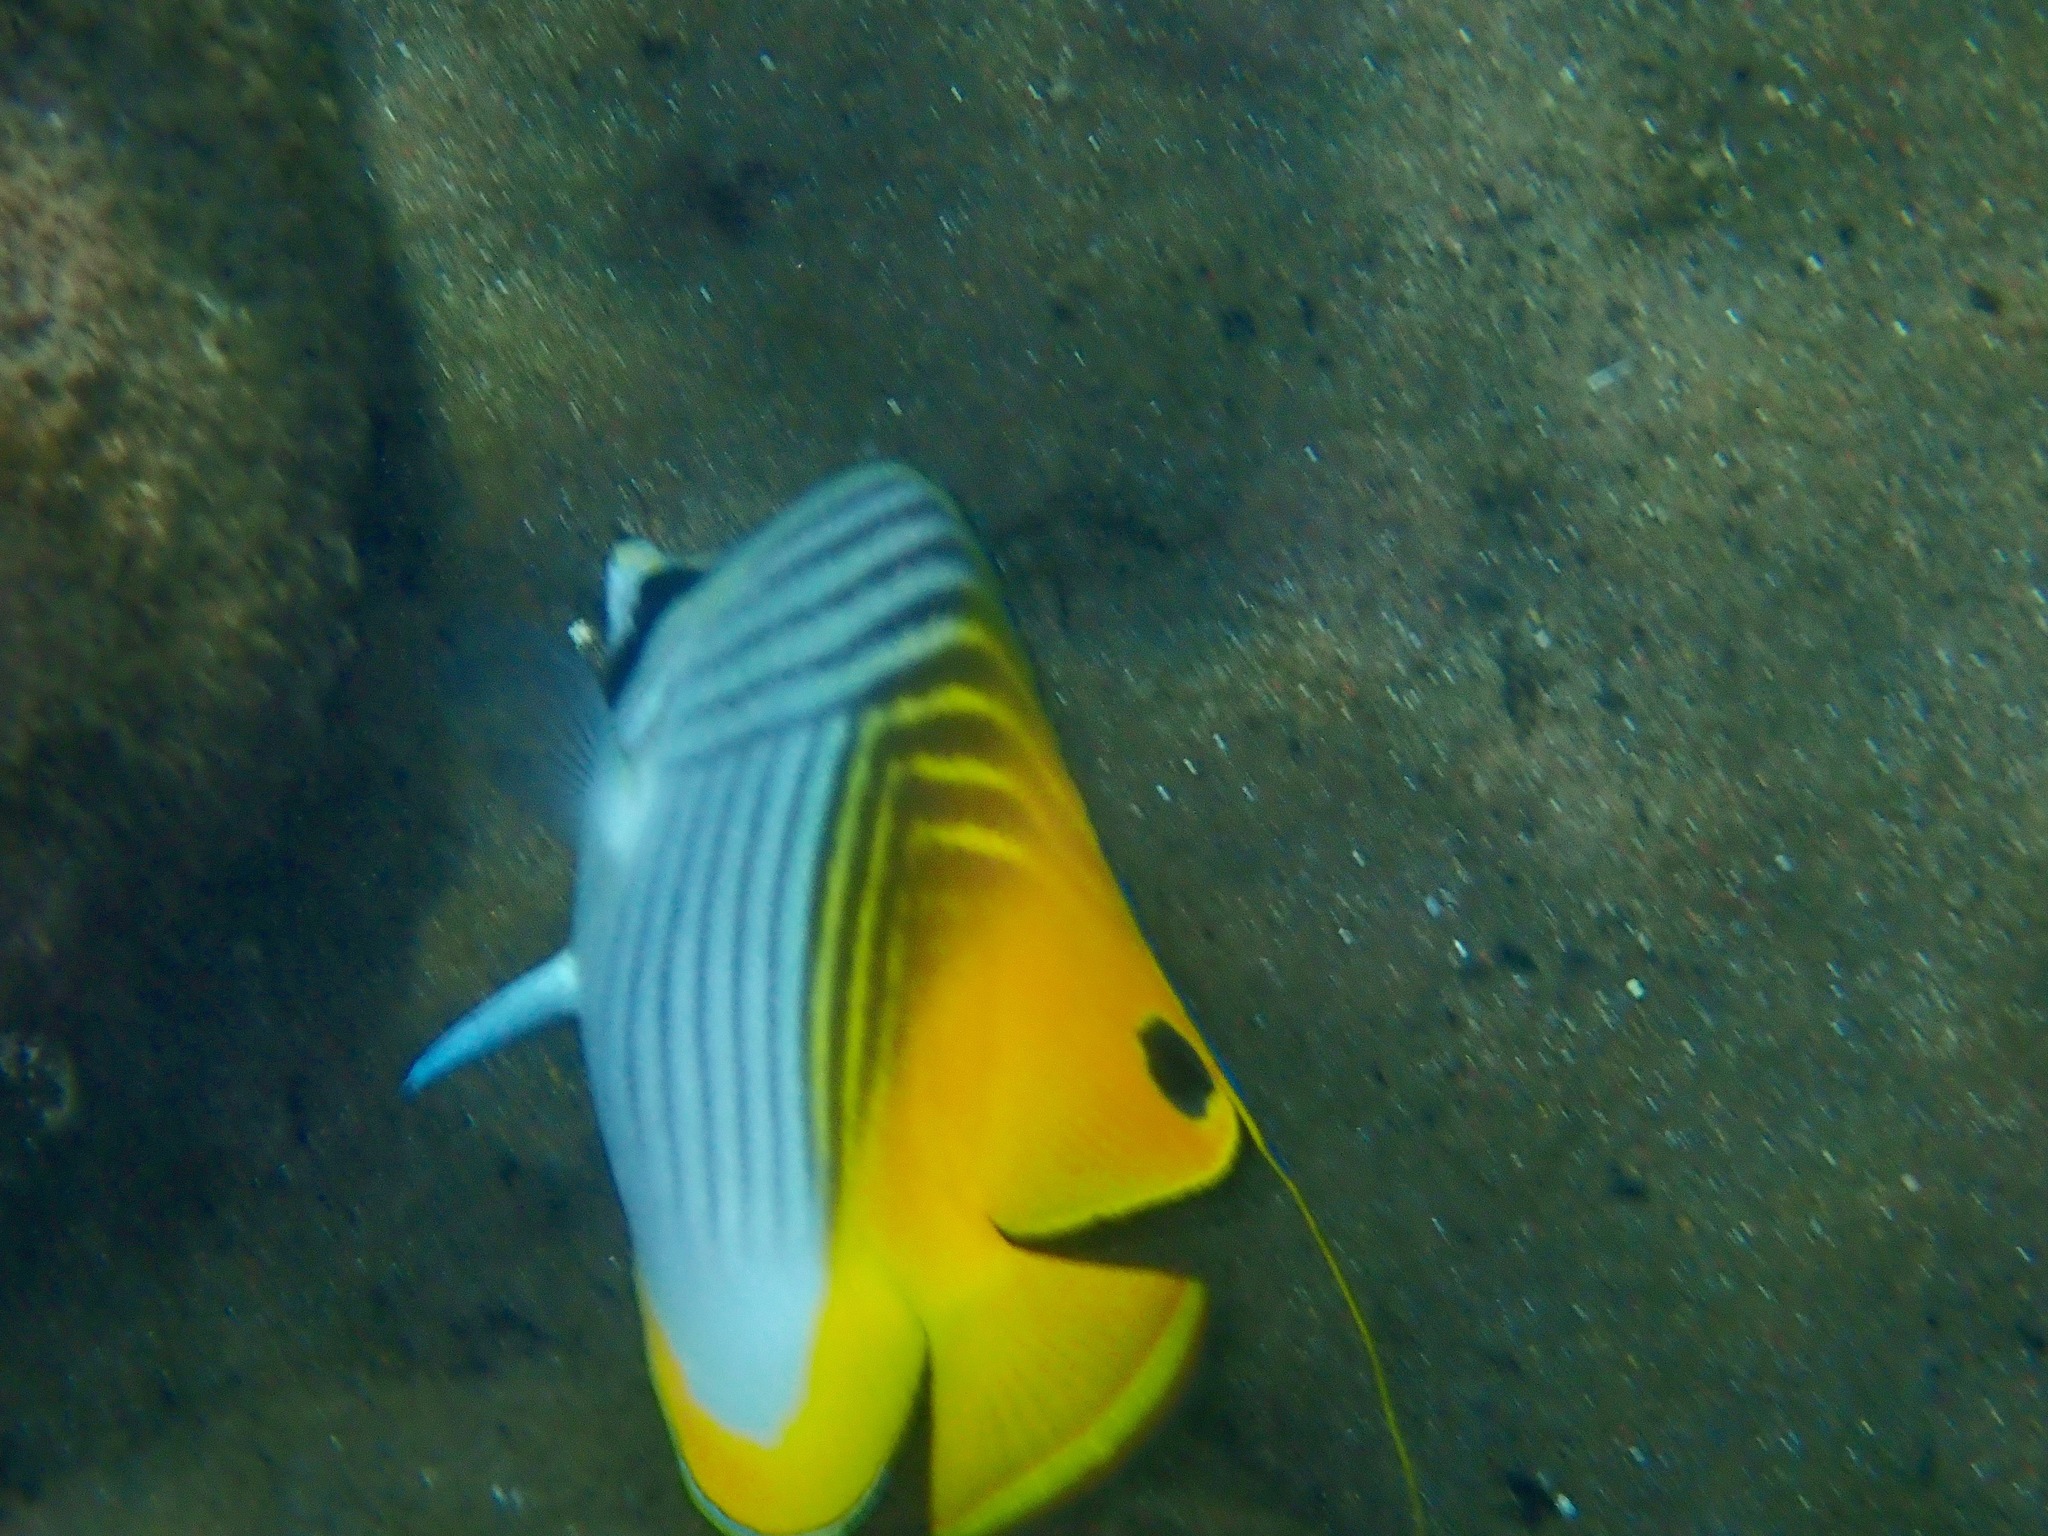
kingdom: Animalia
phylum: Chordata
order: Perciformes
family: Chaetodontidae
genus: Chaetodon
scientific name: Chaetodon auriga
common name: Threadfin butterflyfish
